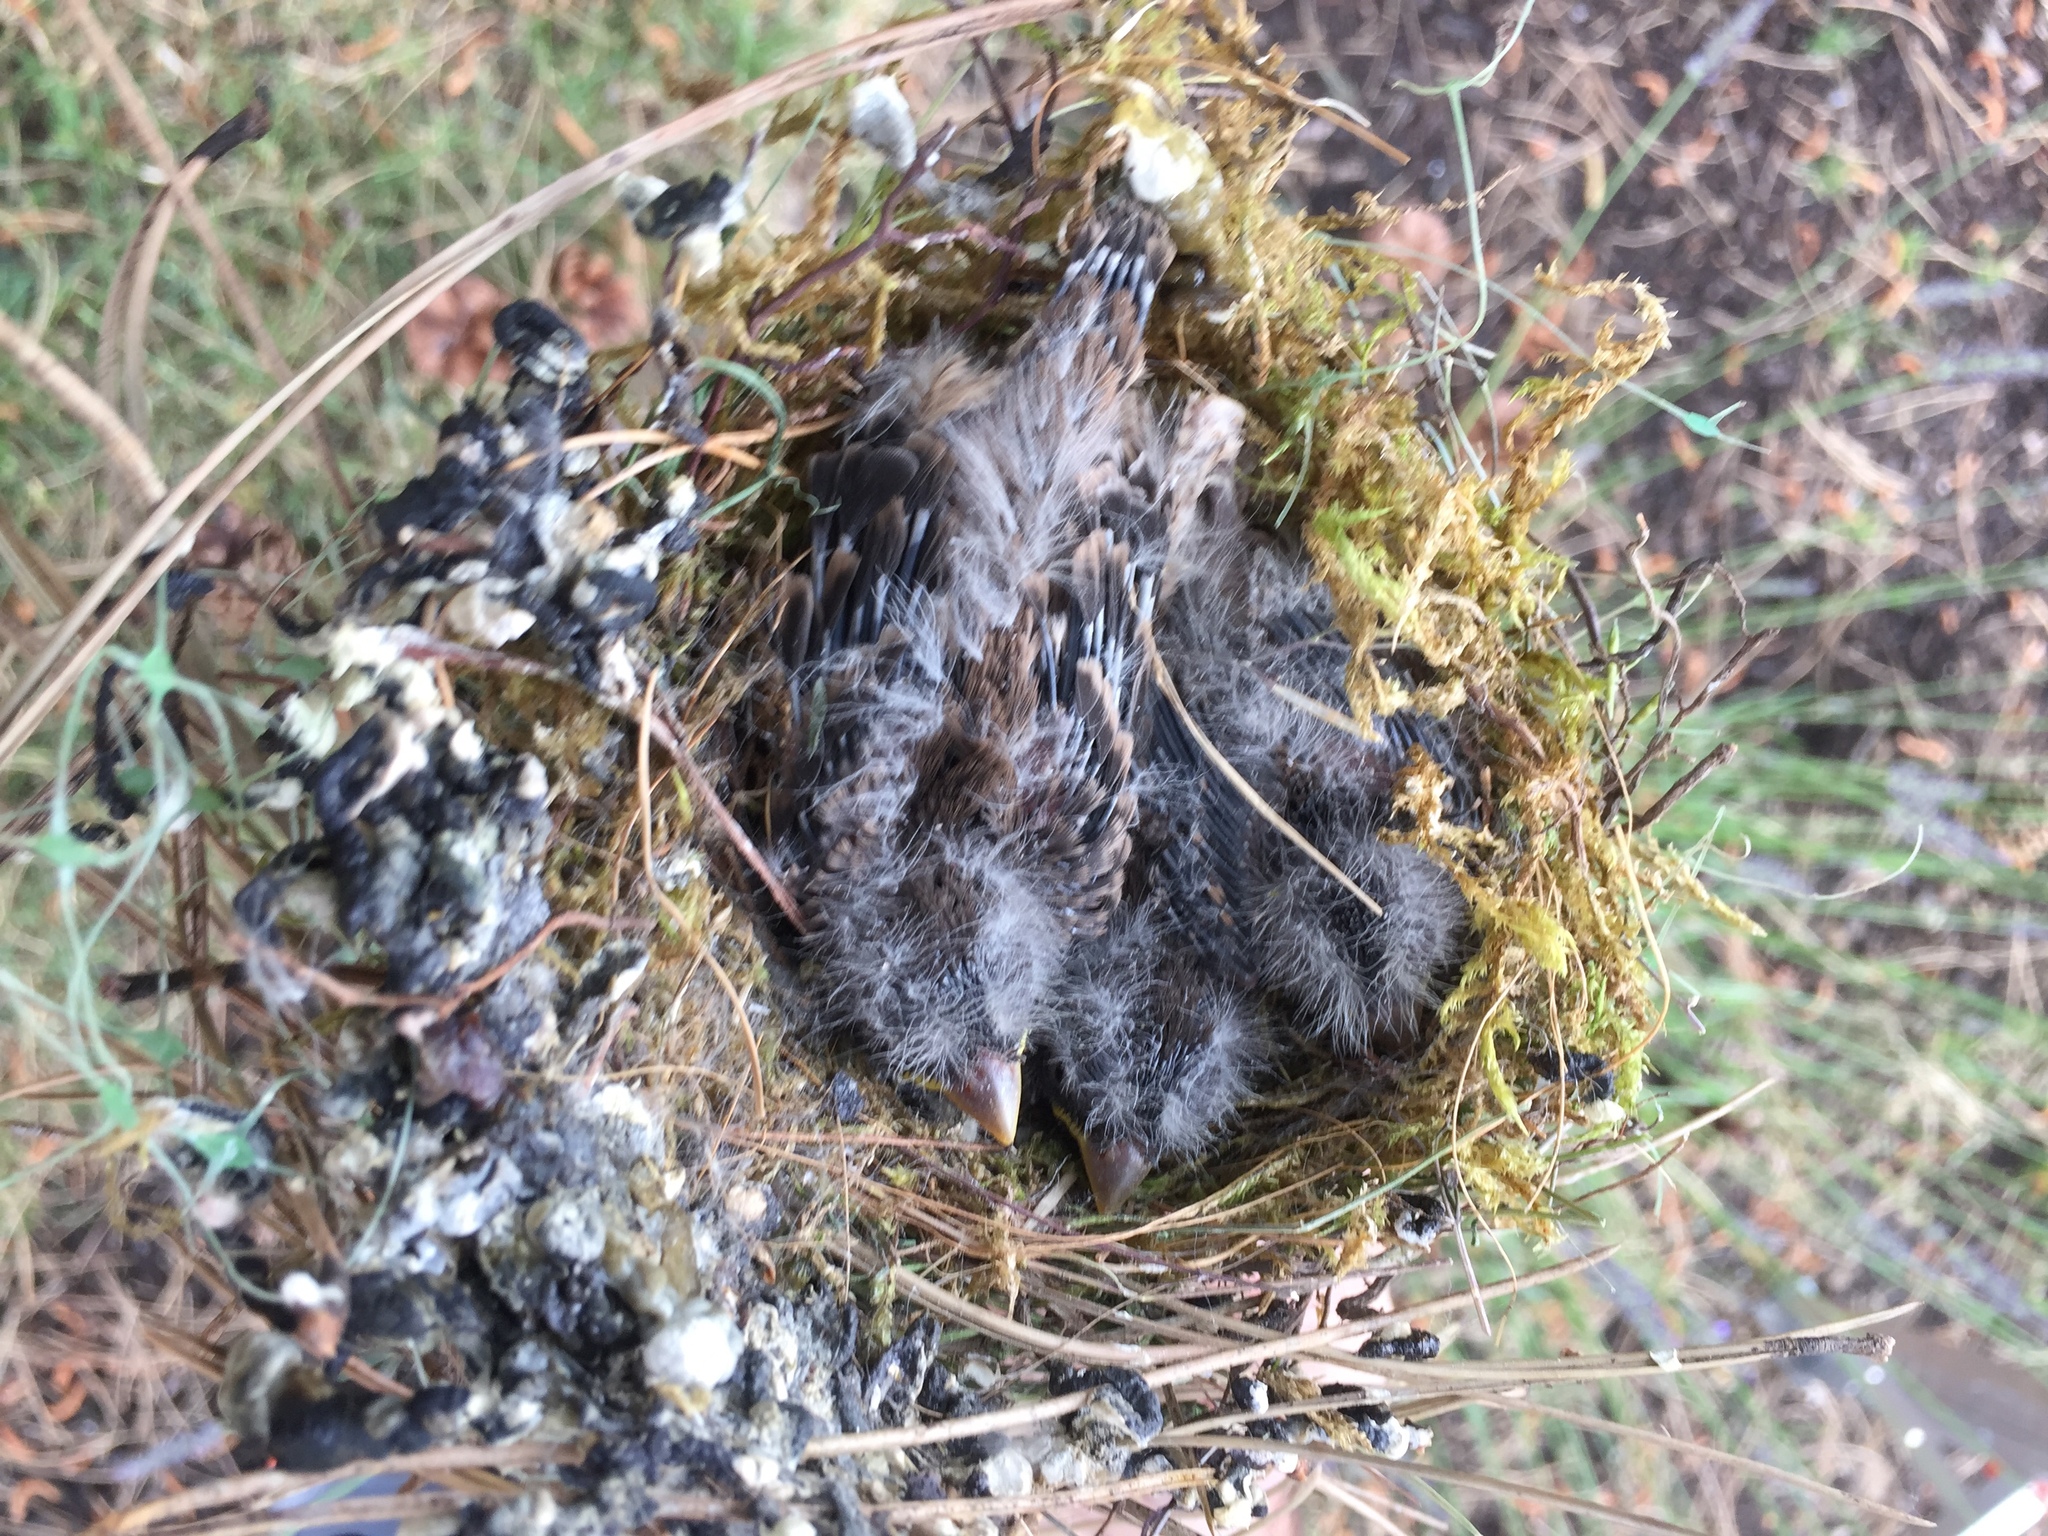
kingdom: Animalia
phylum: Chordata
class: Aves
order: Passeriformes
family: Fringillidae
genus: Haemorhous
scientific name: Haemorhous mexicanus
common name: House finch
